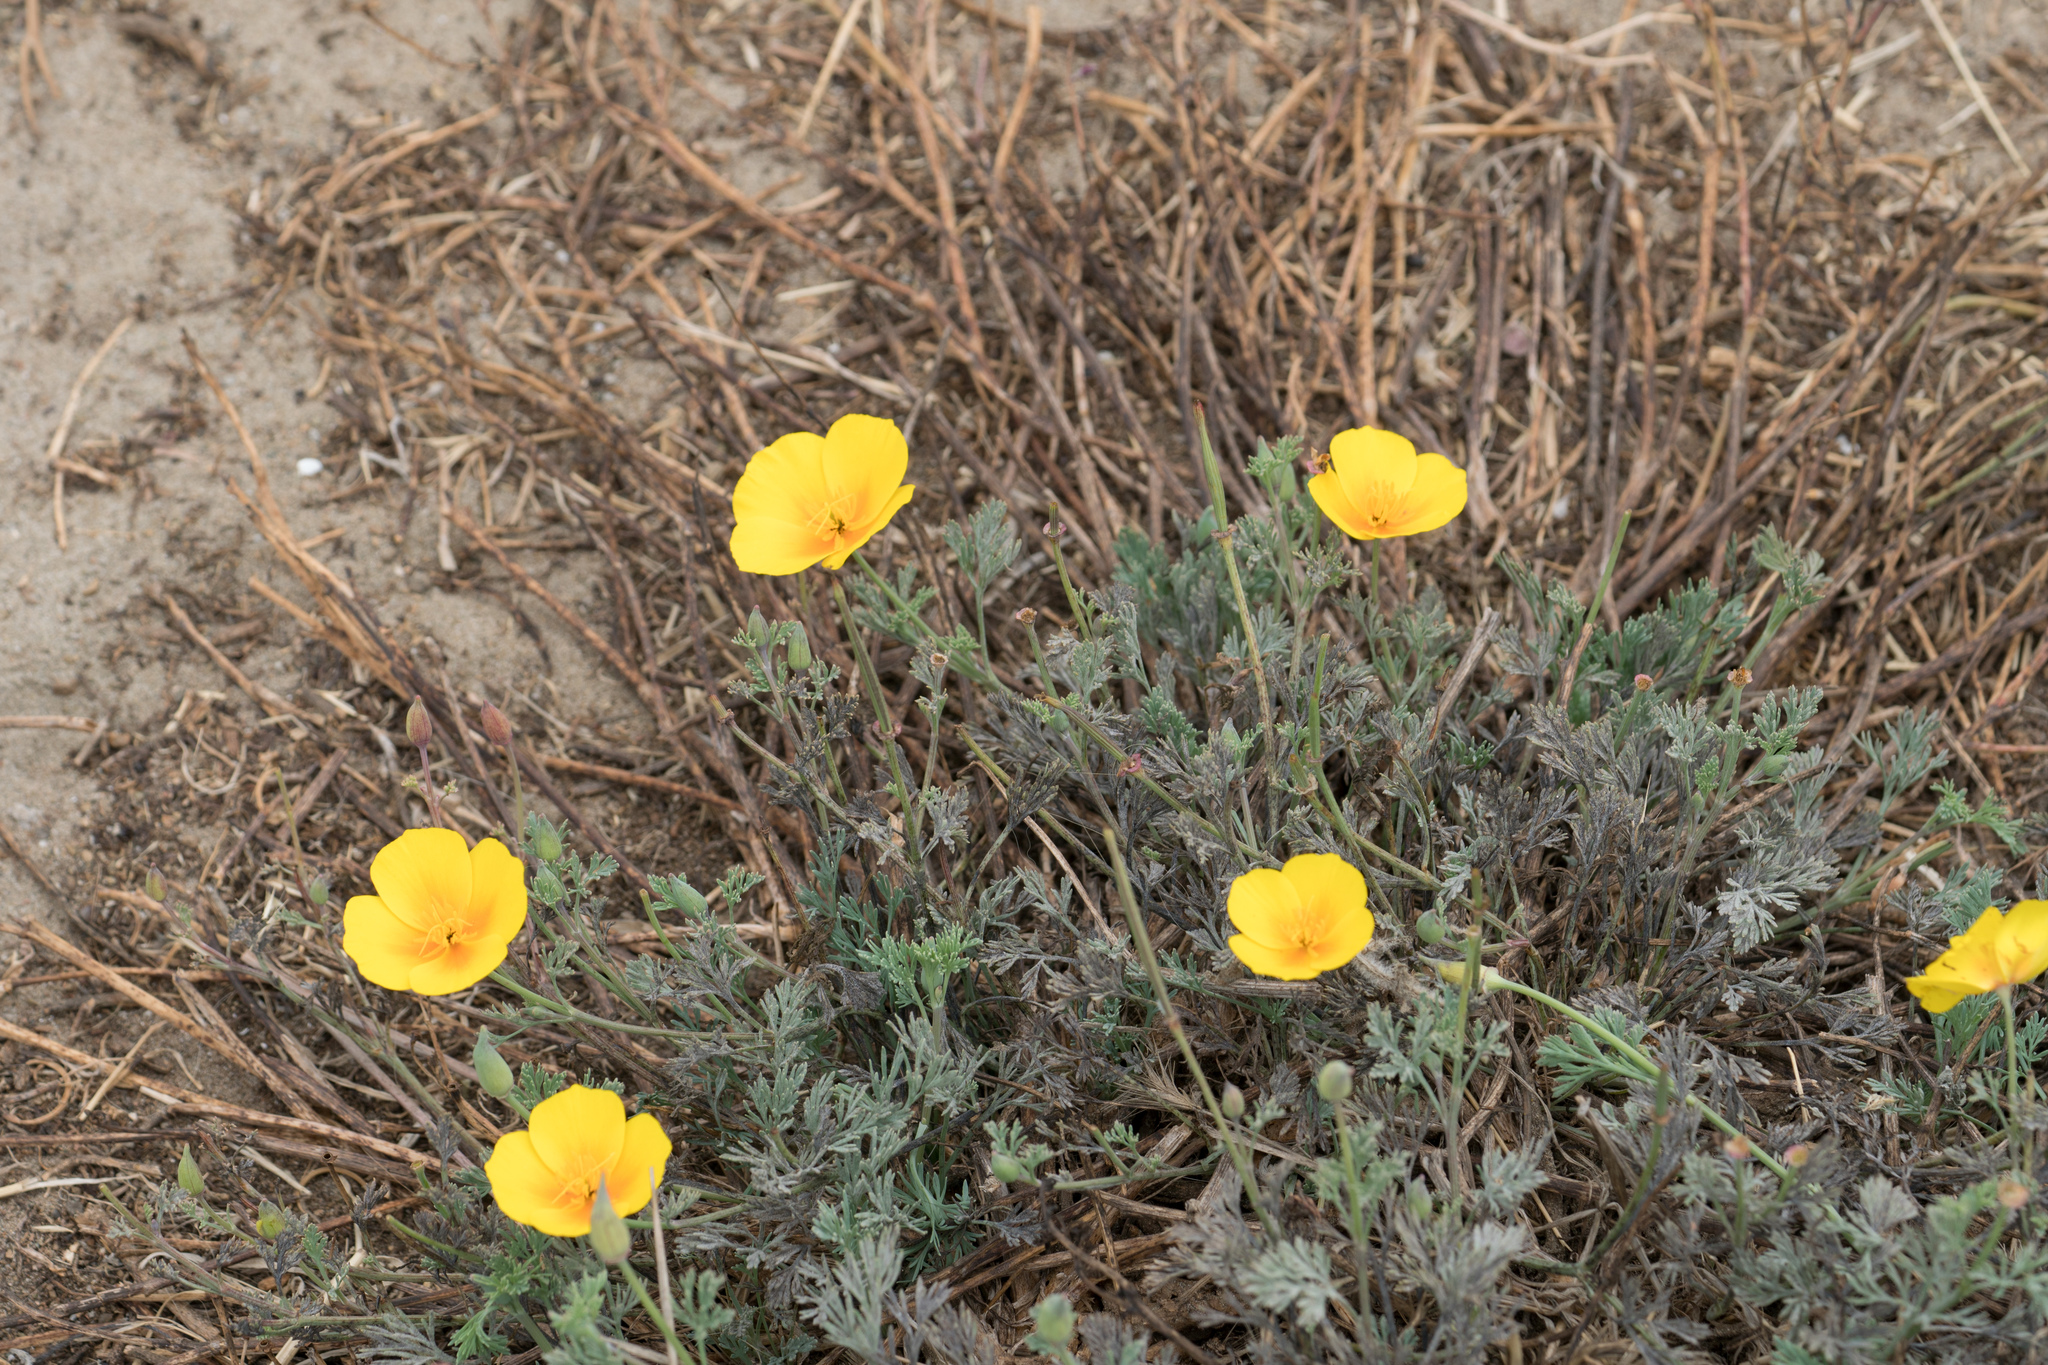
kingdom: Plantae
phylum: Tracheophyta
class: Magnoliopsida
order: Ranunculales
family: Papaveraceae
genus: Eschscholzia
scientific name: Eschscholzia californica
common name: California poppy
